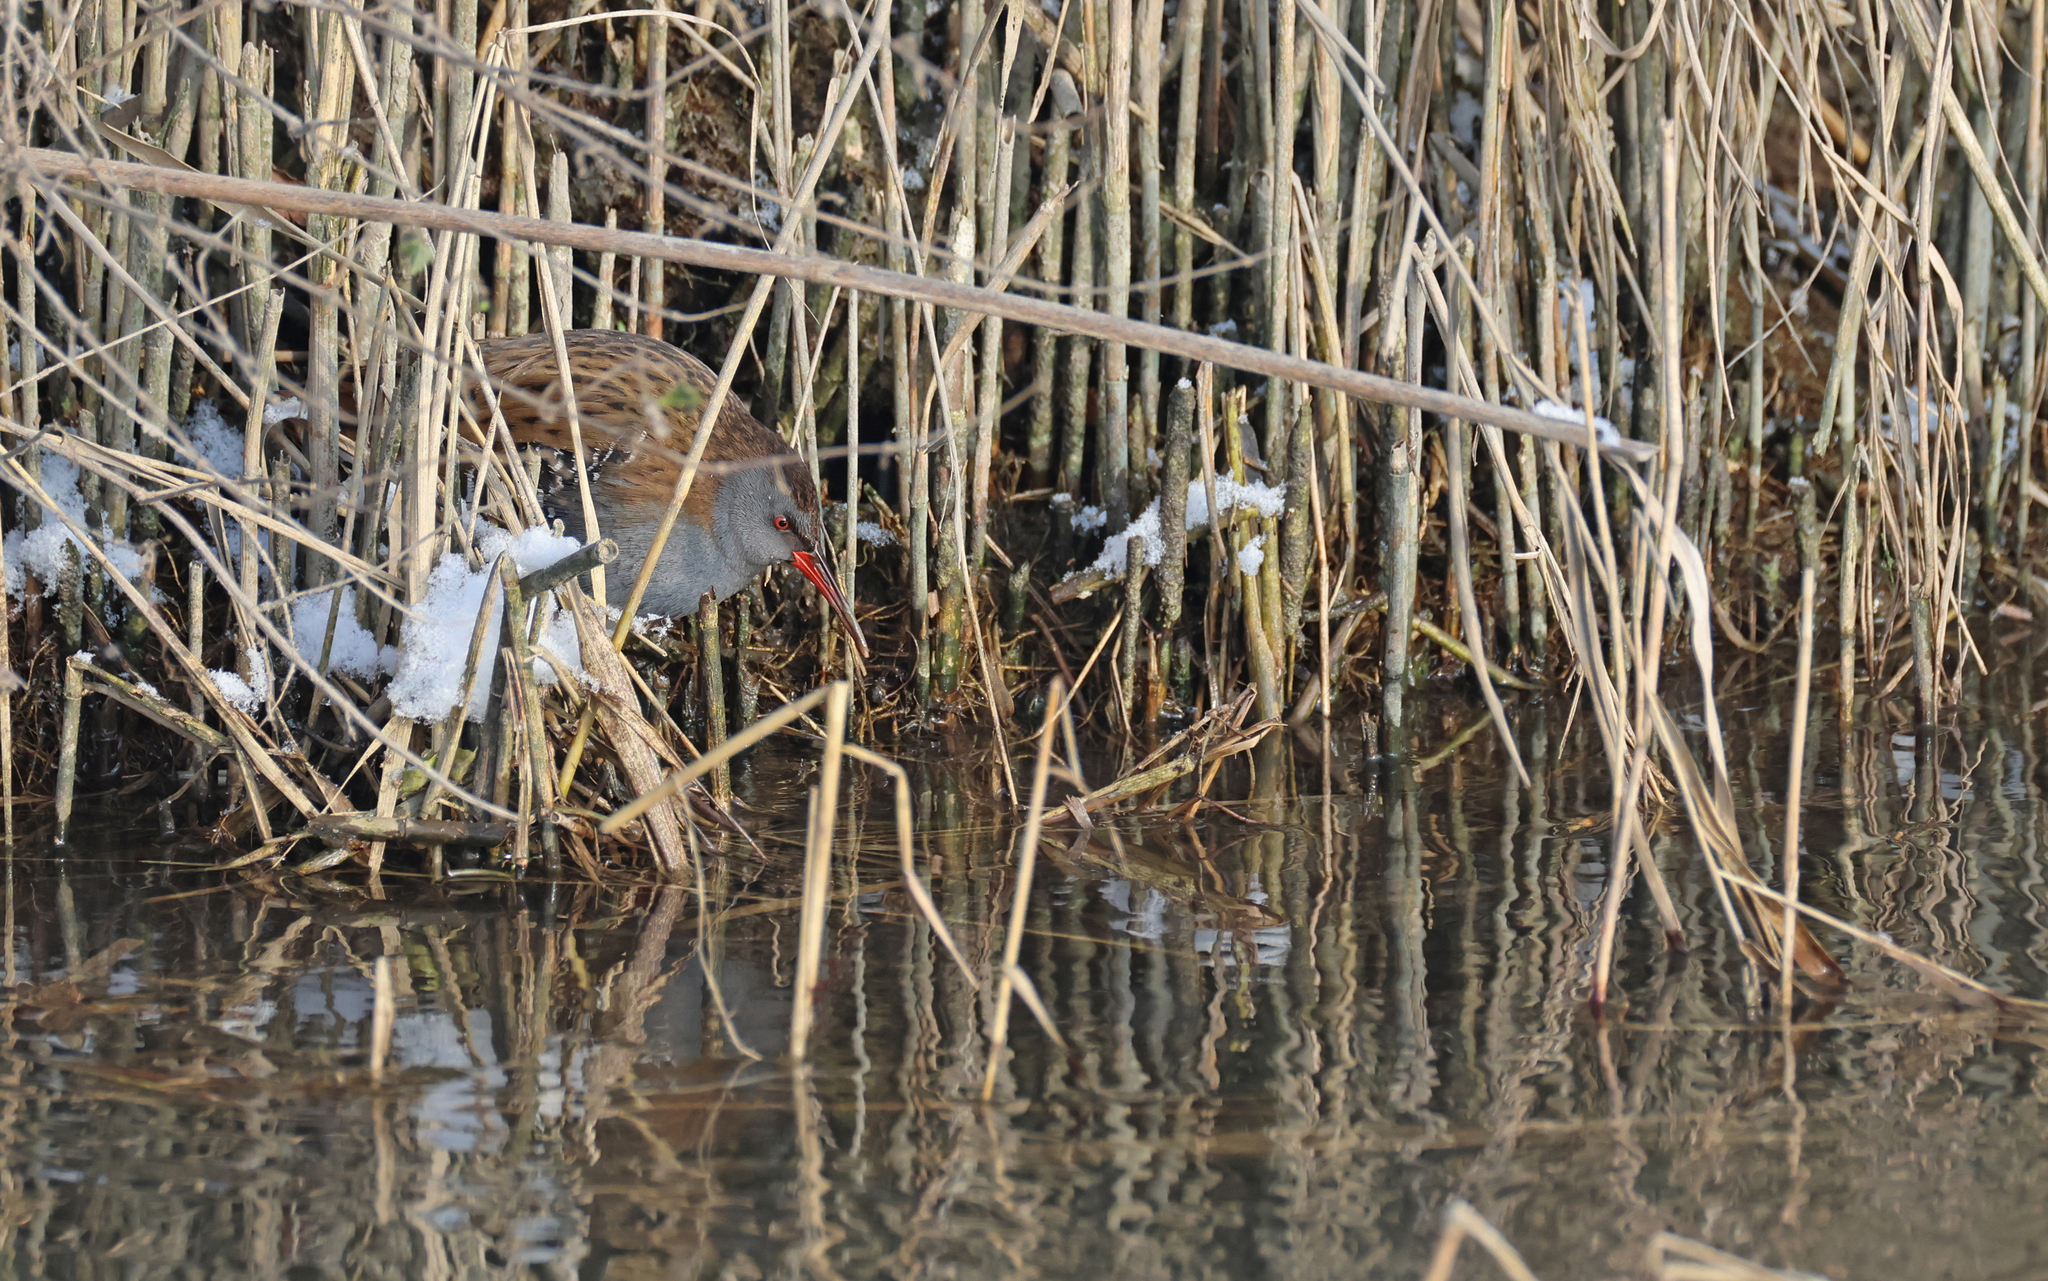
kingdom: Animalia
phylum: Chordata
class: Aves
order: Gruiformes
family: Rallidae
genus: Rallus
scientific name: Rallus aquaticus
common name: Water rail
